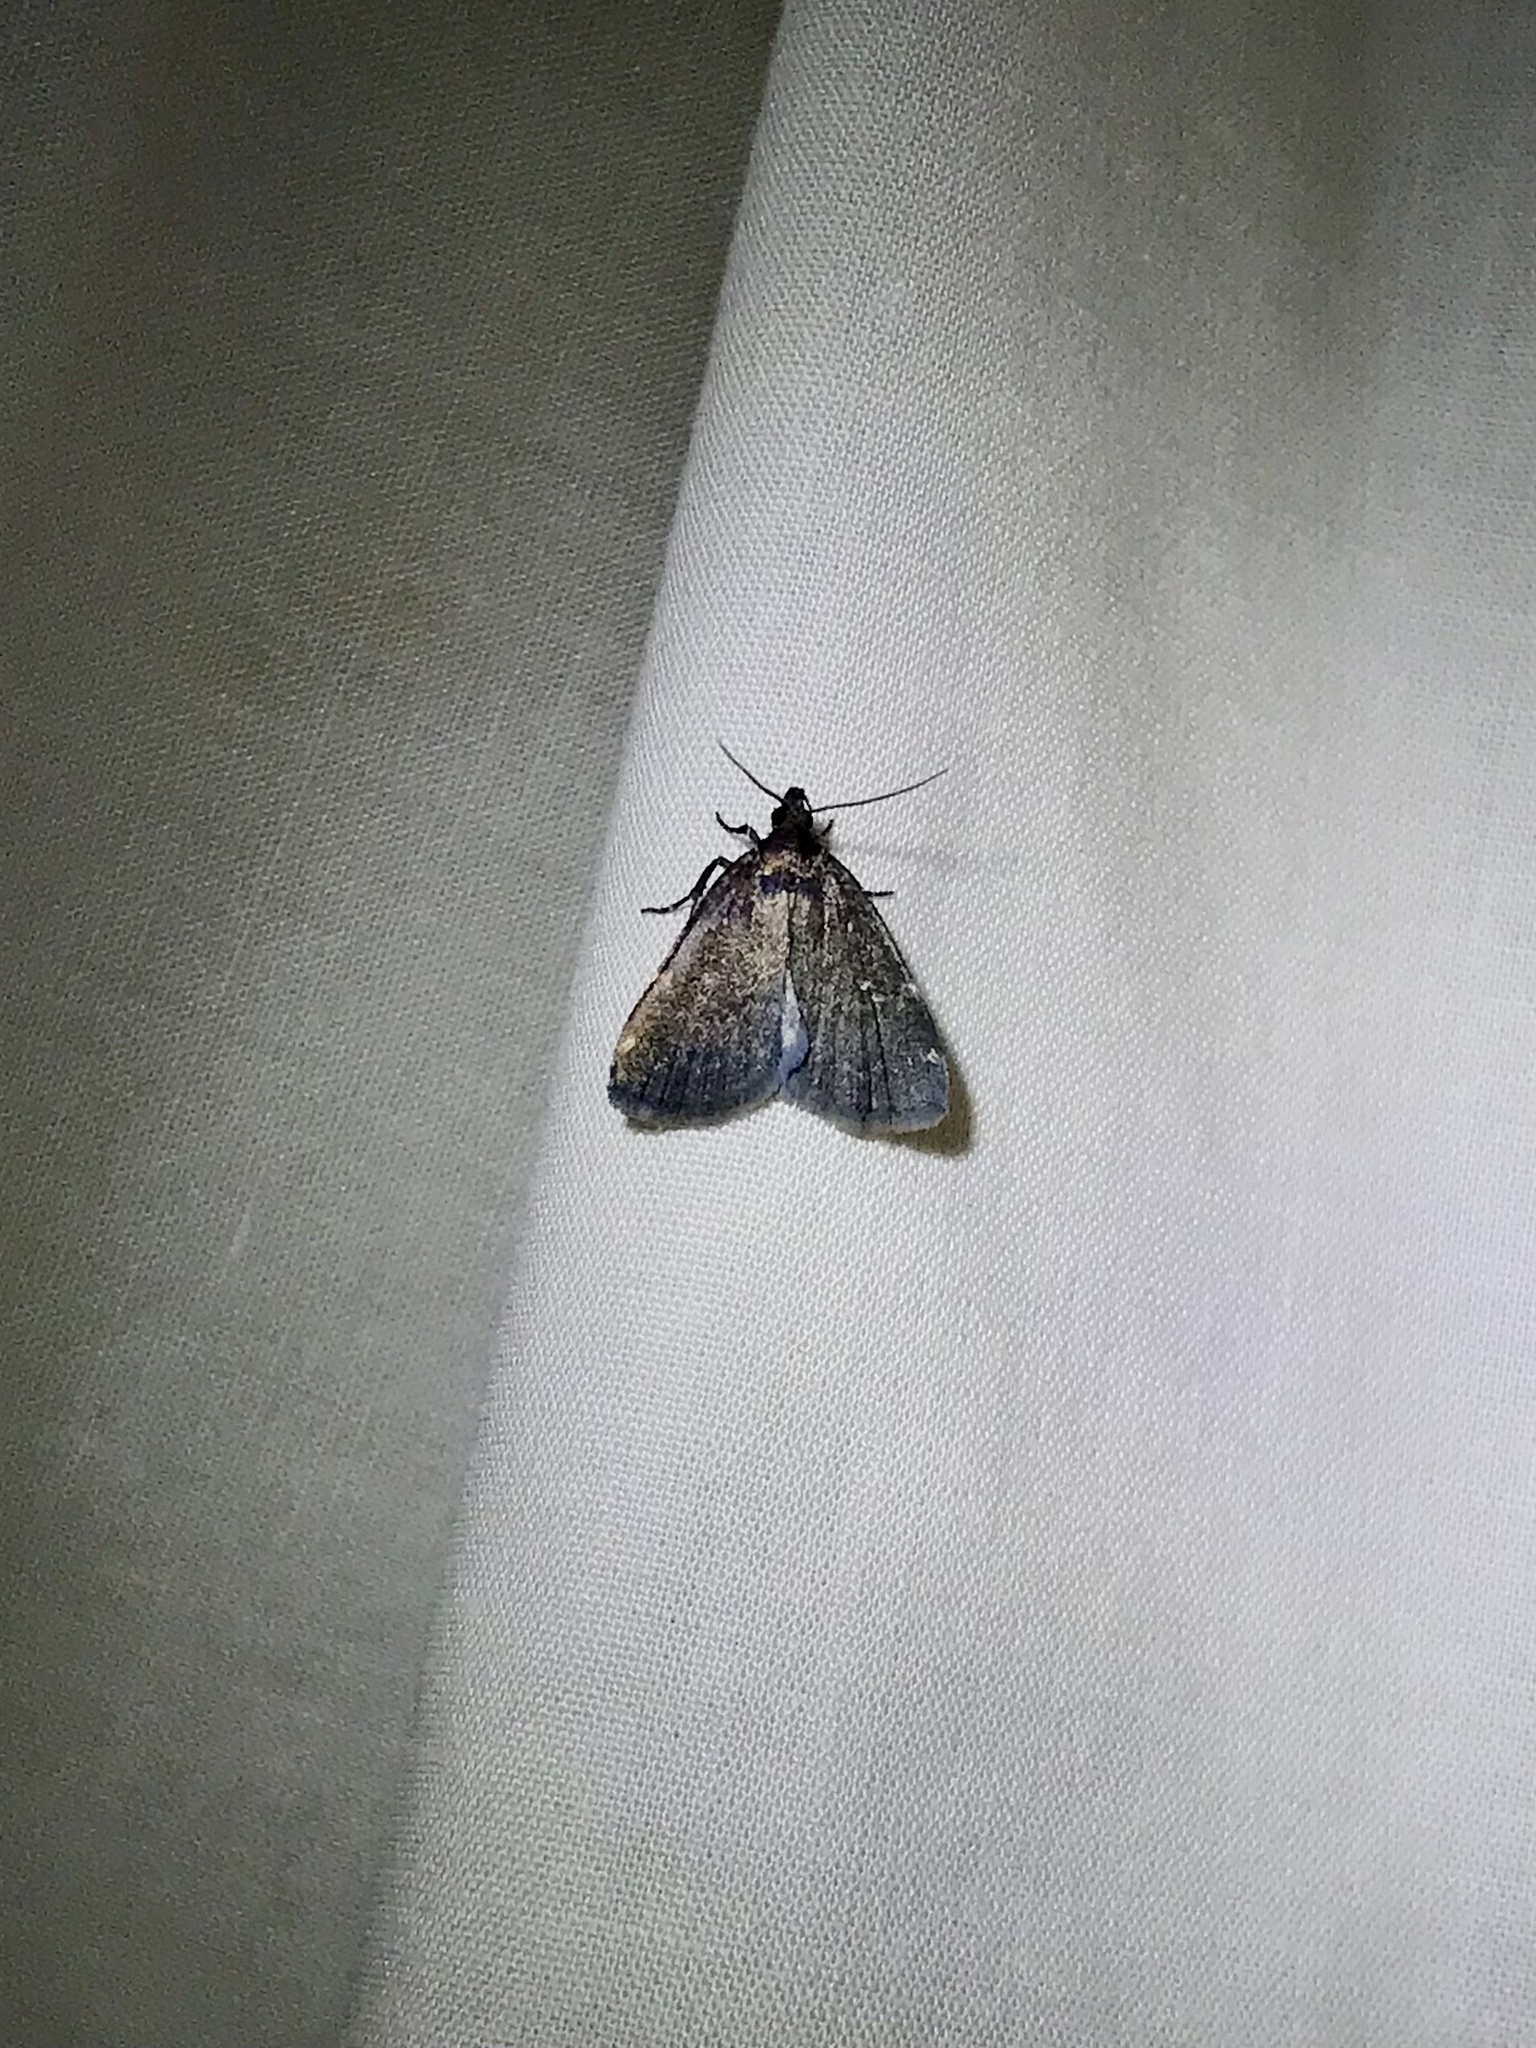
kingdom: Animalia
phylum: Arthropoda
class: Insecta
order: Lepidoptera
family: Erebidae
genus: Idia
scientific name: Idia julia
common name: Julia's idia moth
